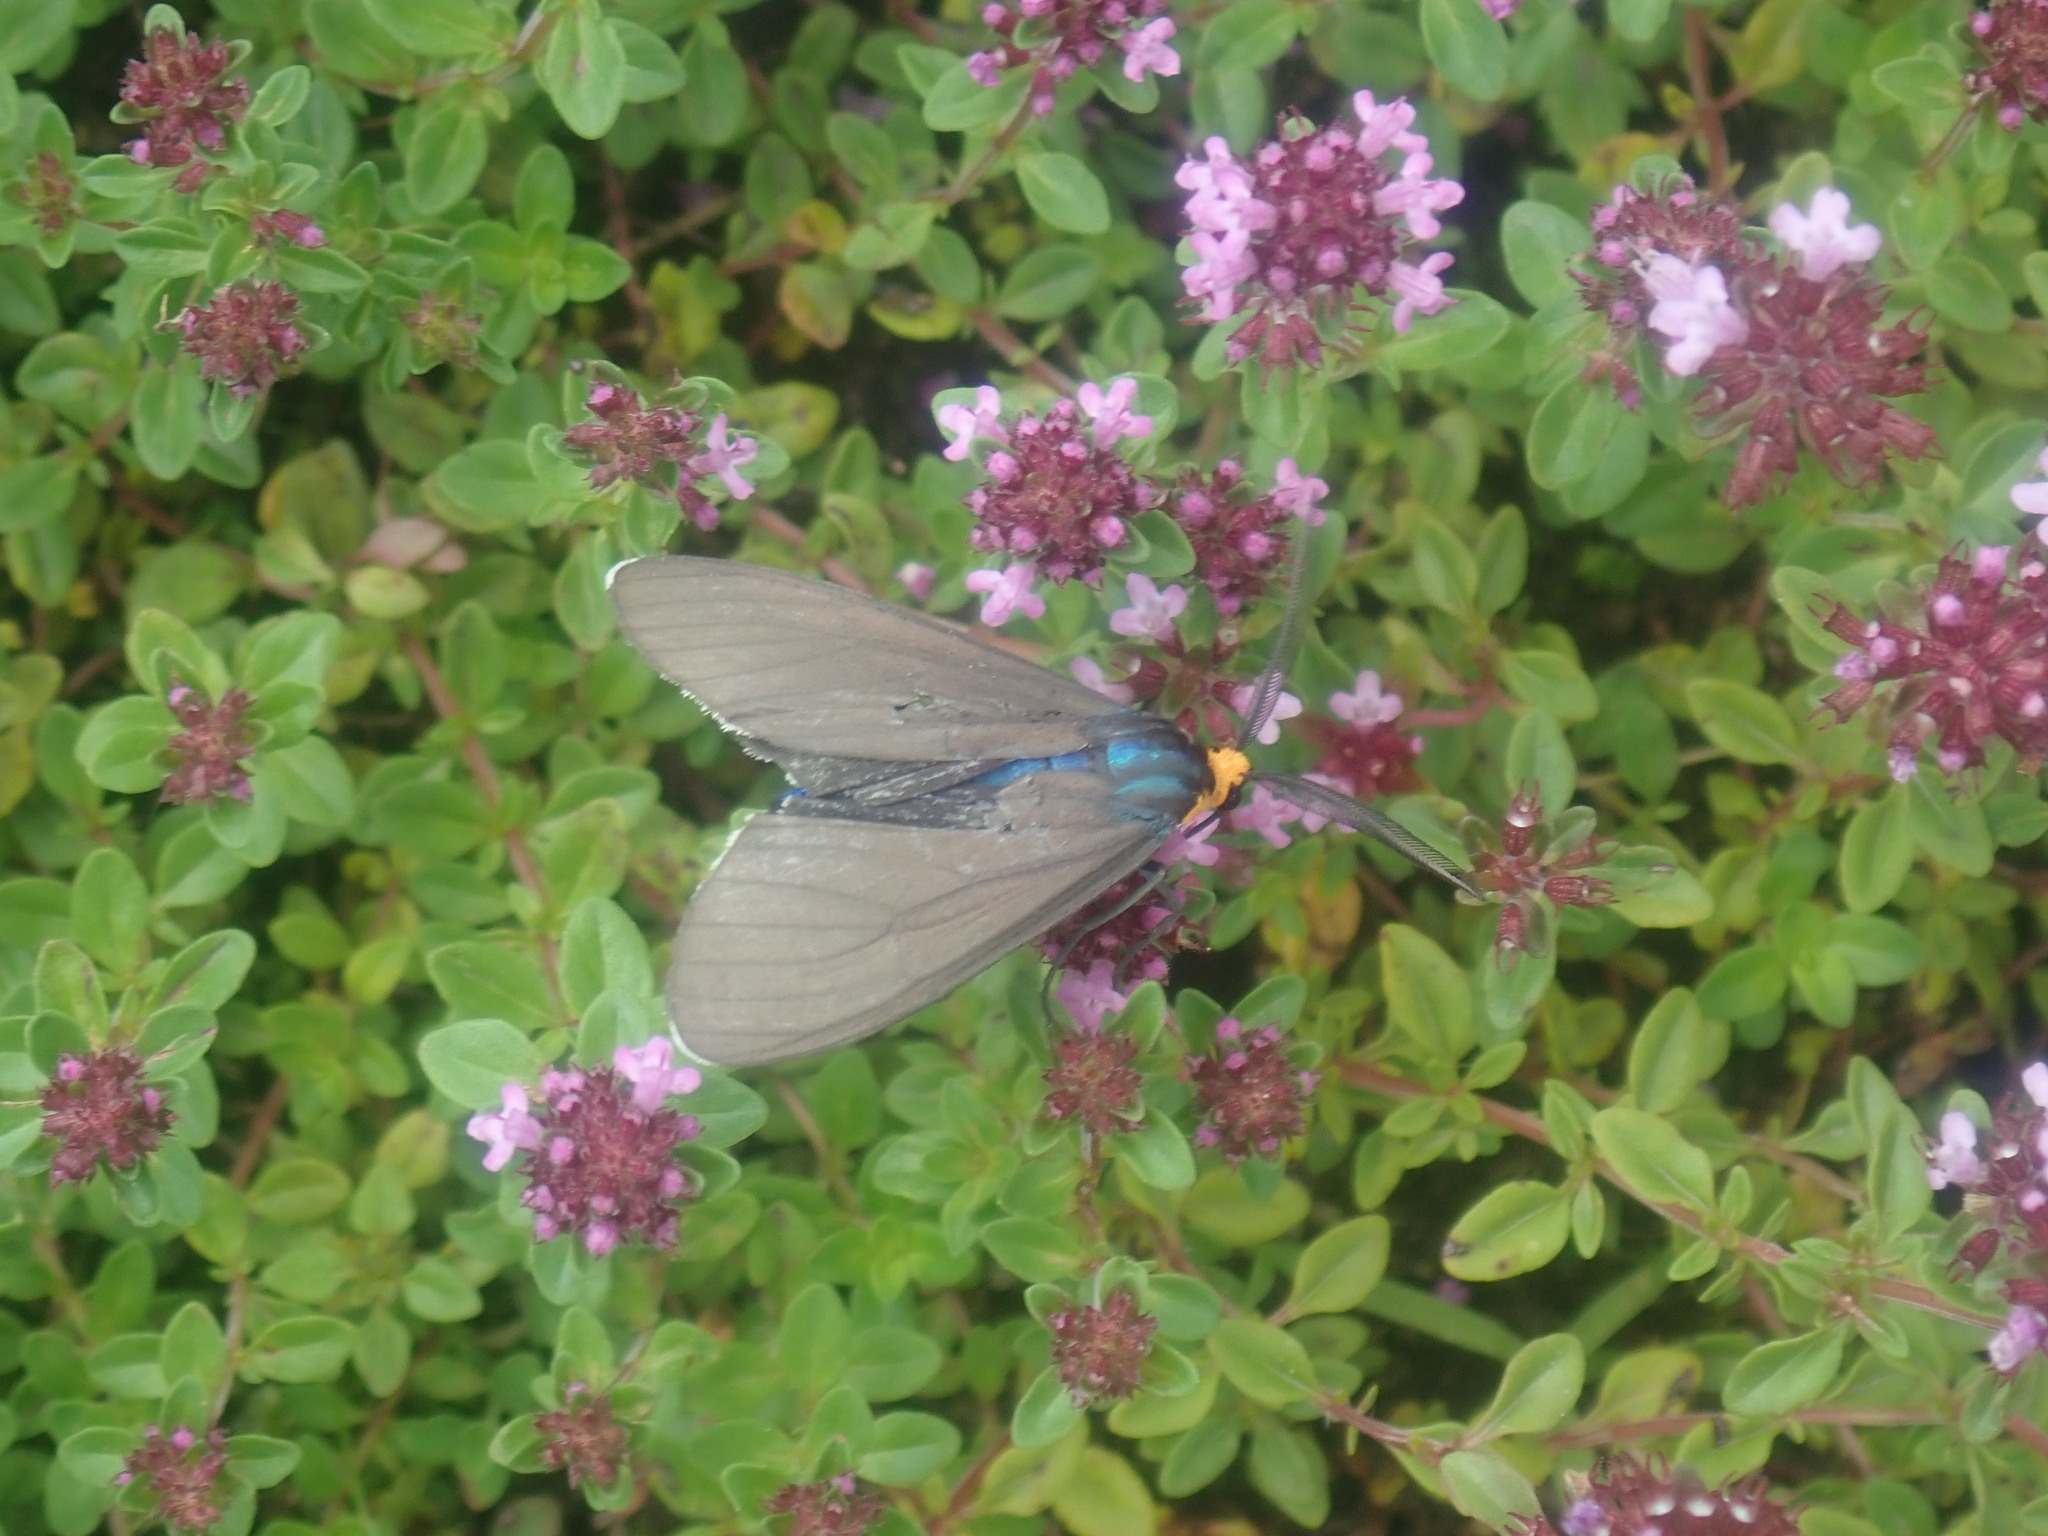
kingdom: Animalia
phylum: Arthropoda
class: Insecta
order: Lepidoptera
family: Erebidae
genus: Ctenucha
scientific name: Ctenucha virginica
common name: Virginia ctenucha moth
